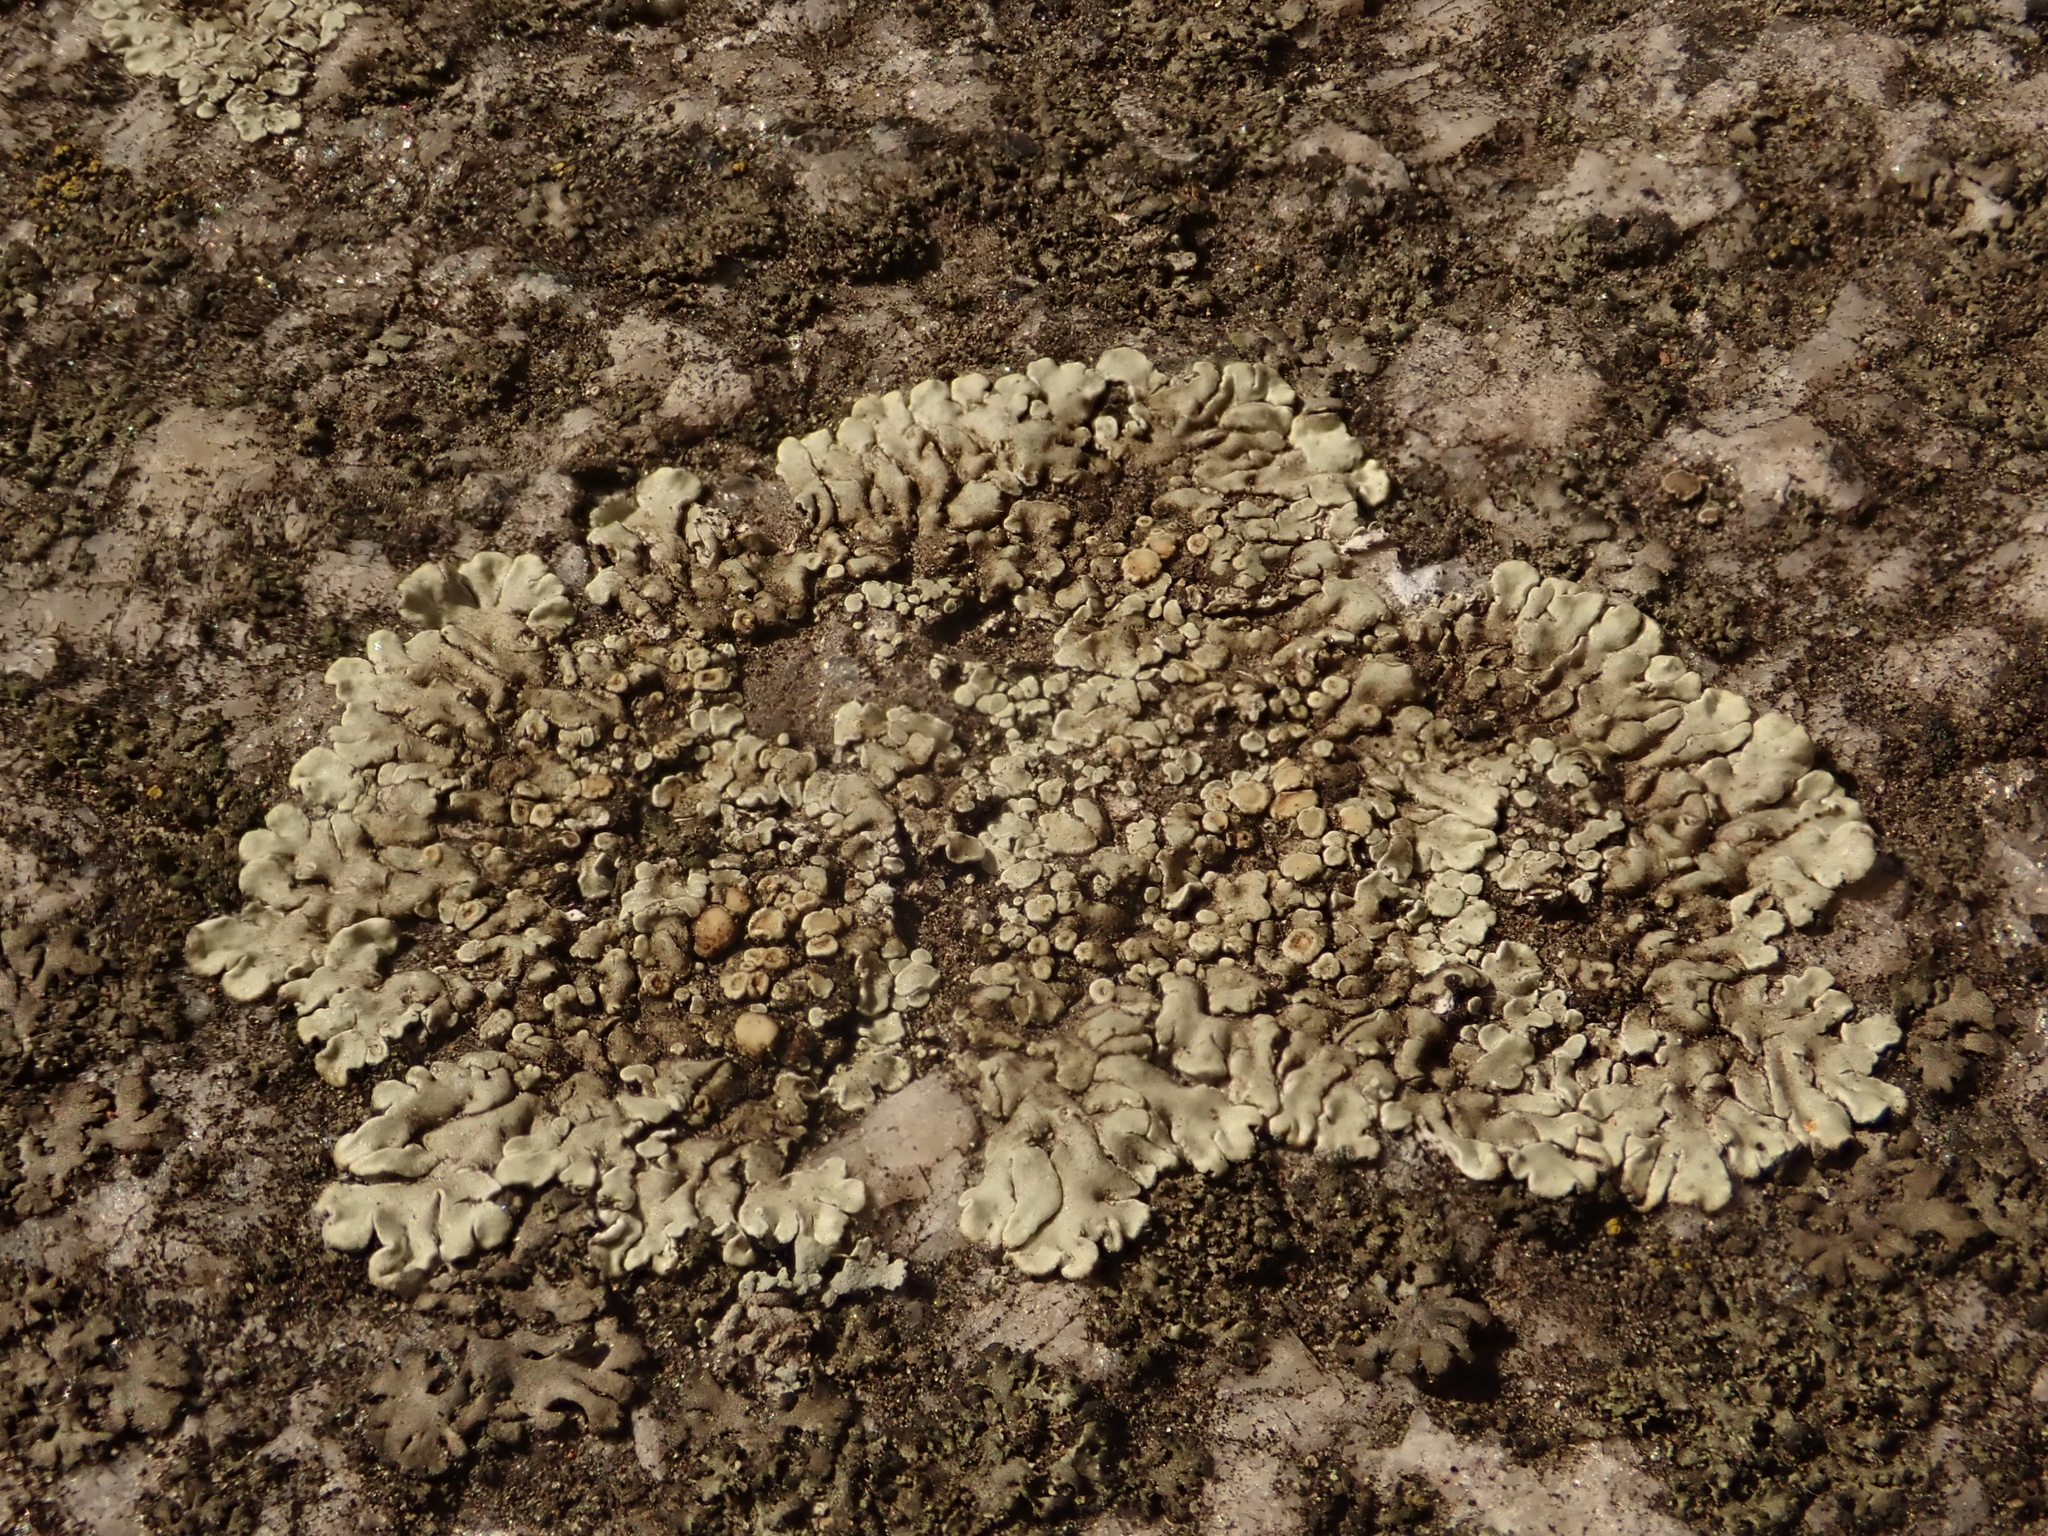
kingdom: Fungi
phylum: Ascomycota
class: Lecanoromycetes
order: Lecanorales
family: Lecanoraceae
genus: Protoparmeliopsis
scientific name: Protoparmeliopsis muralis
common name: Stonewall rim lichen
